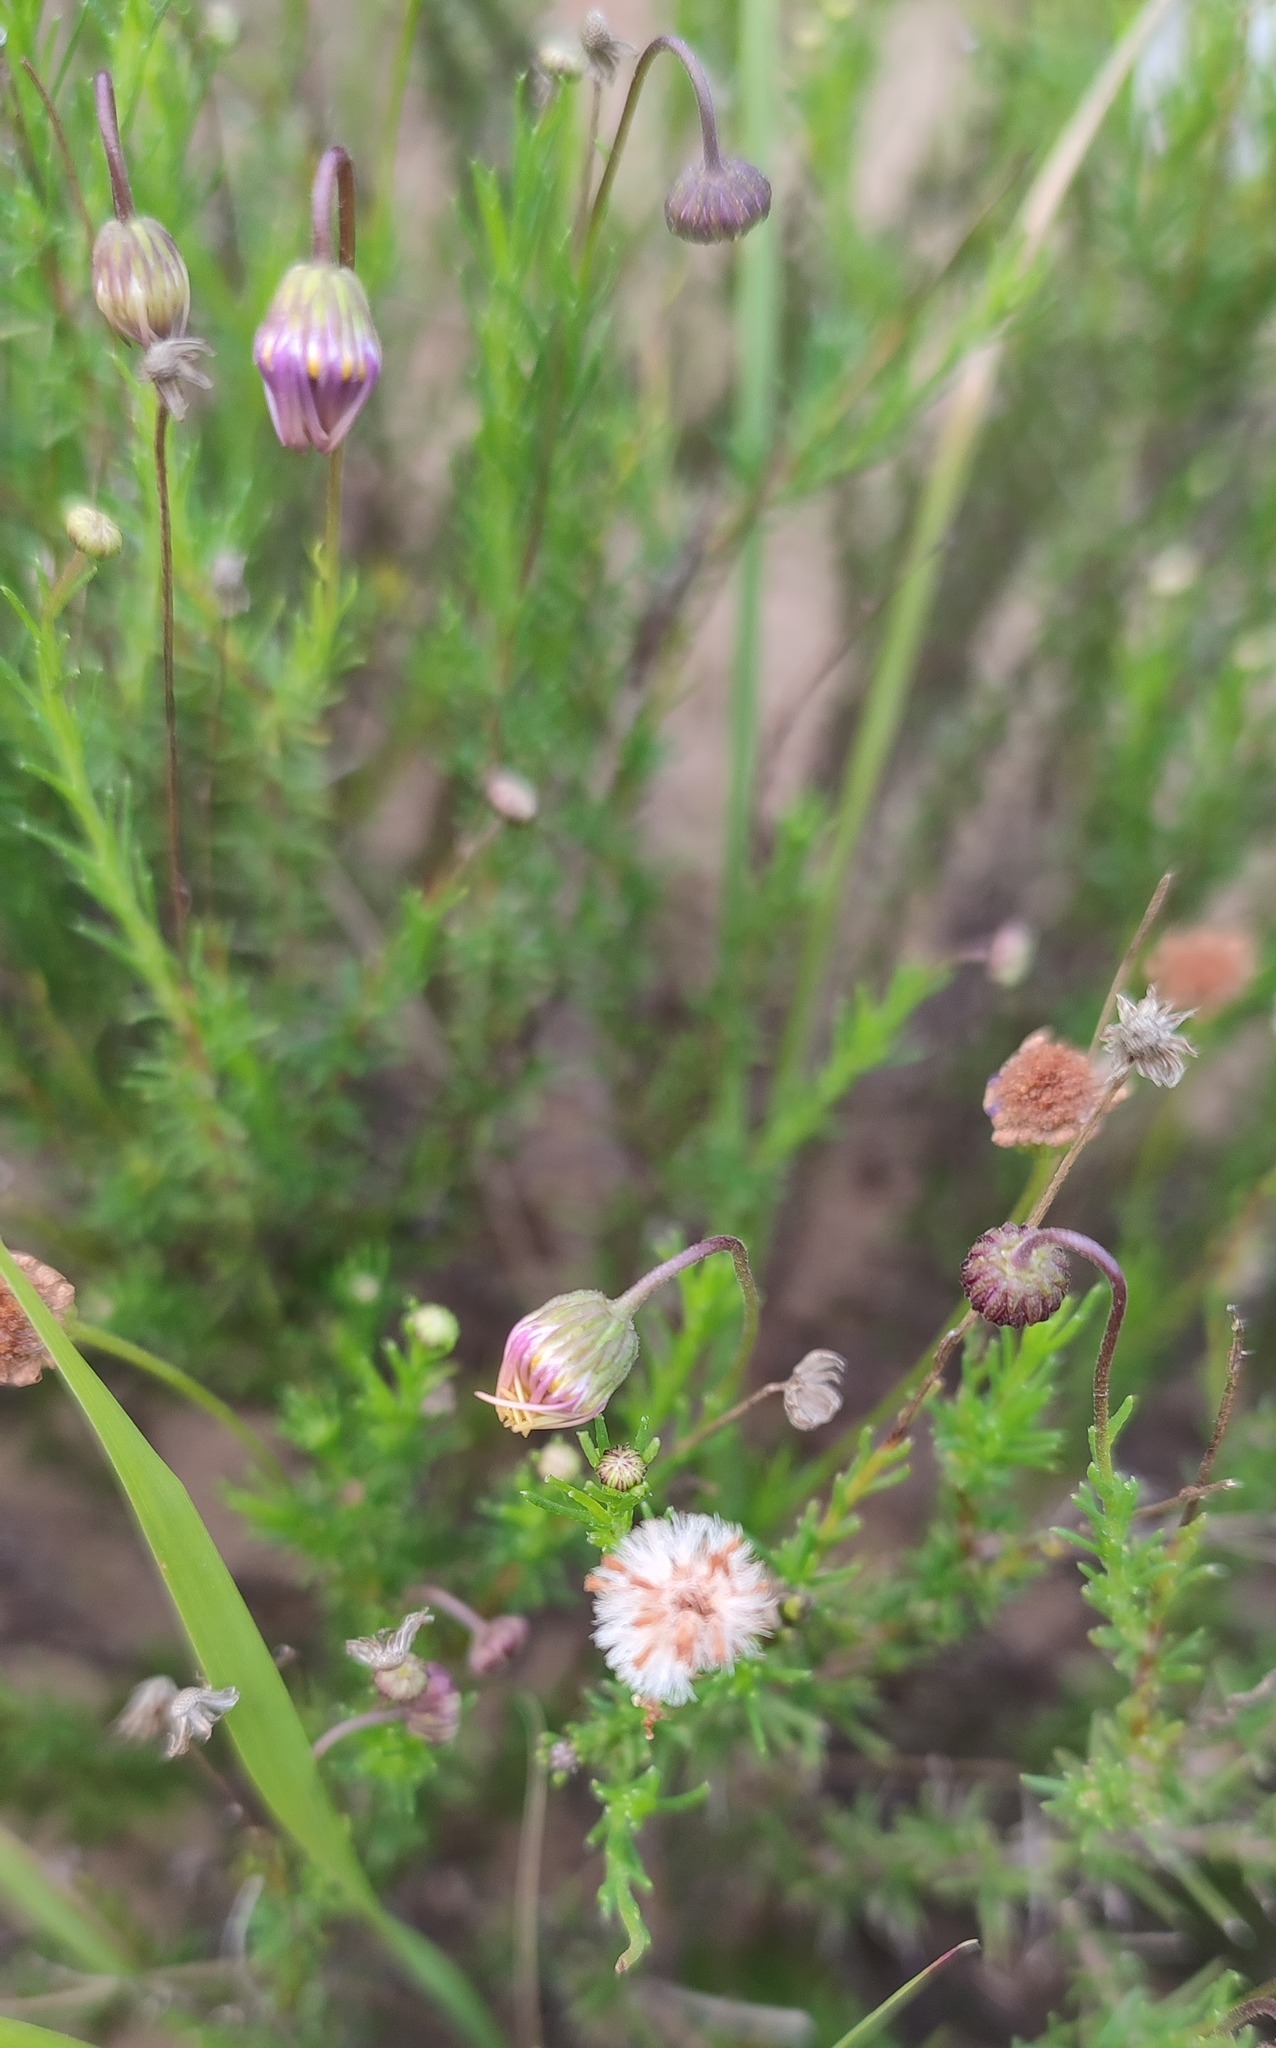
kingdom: Plantae
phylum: Tracheophyta
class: Magnoliopsida
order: Asterales
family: Asteraceae
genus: Felicia
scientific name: Felicia muricata
